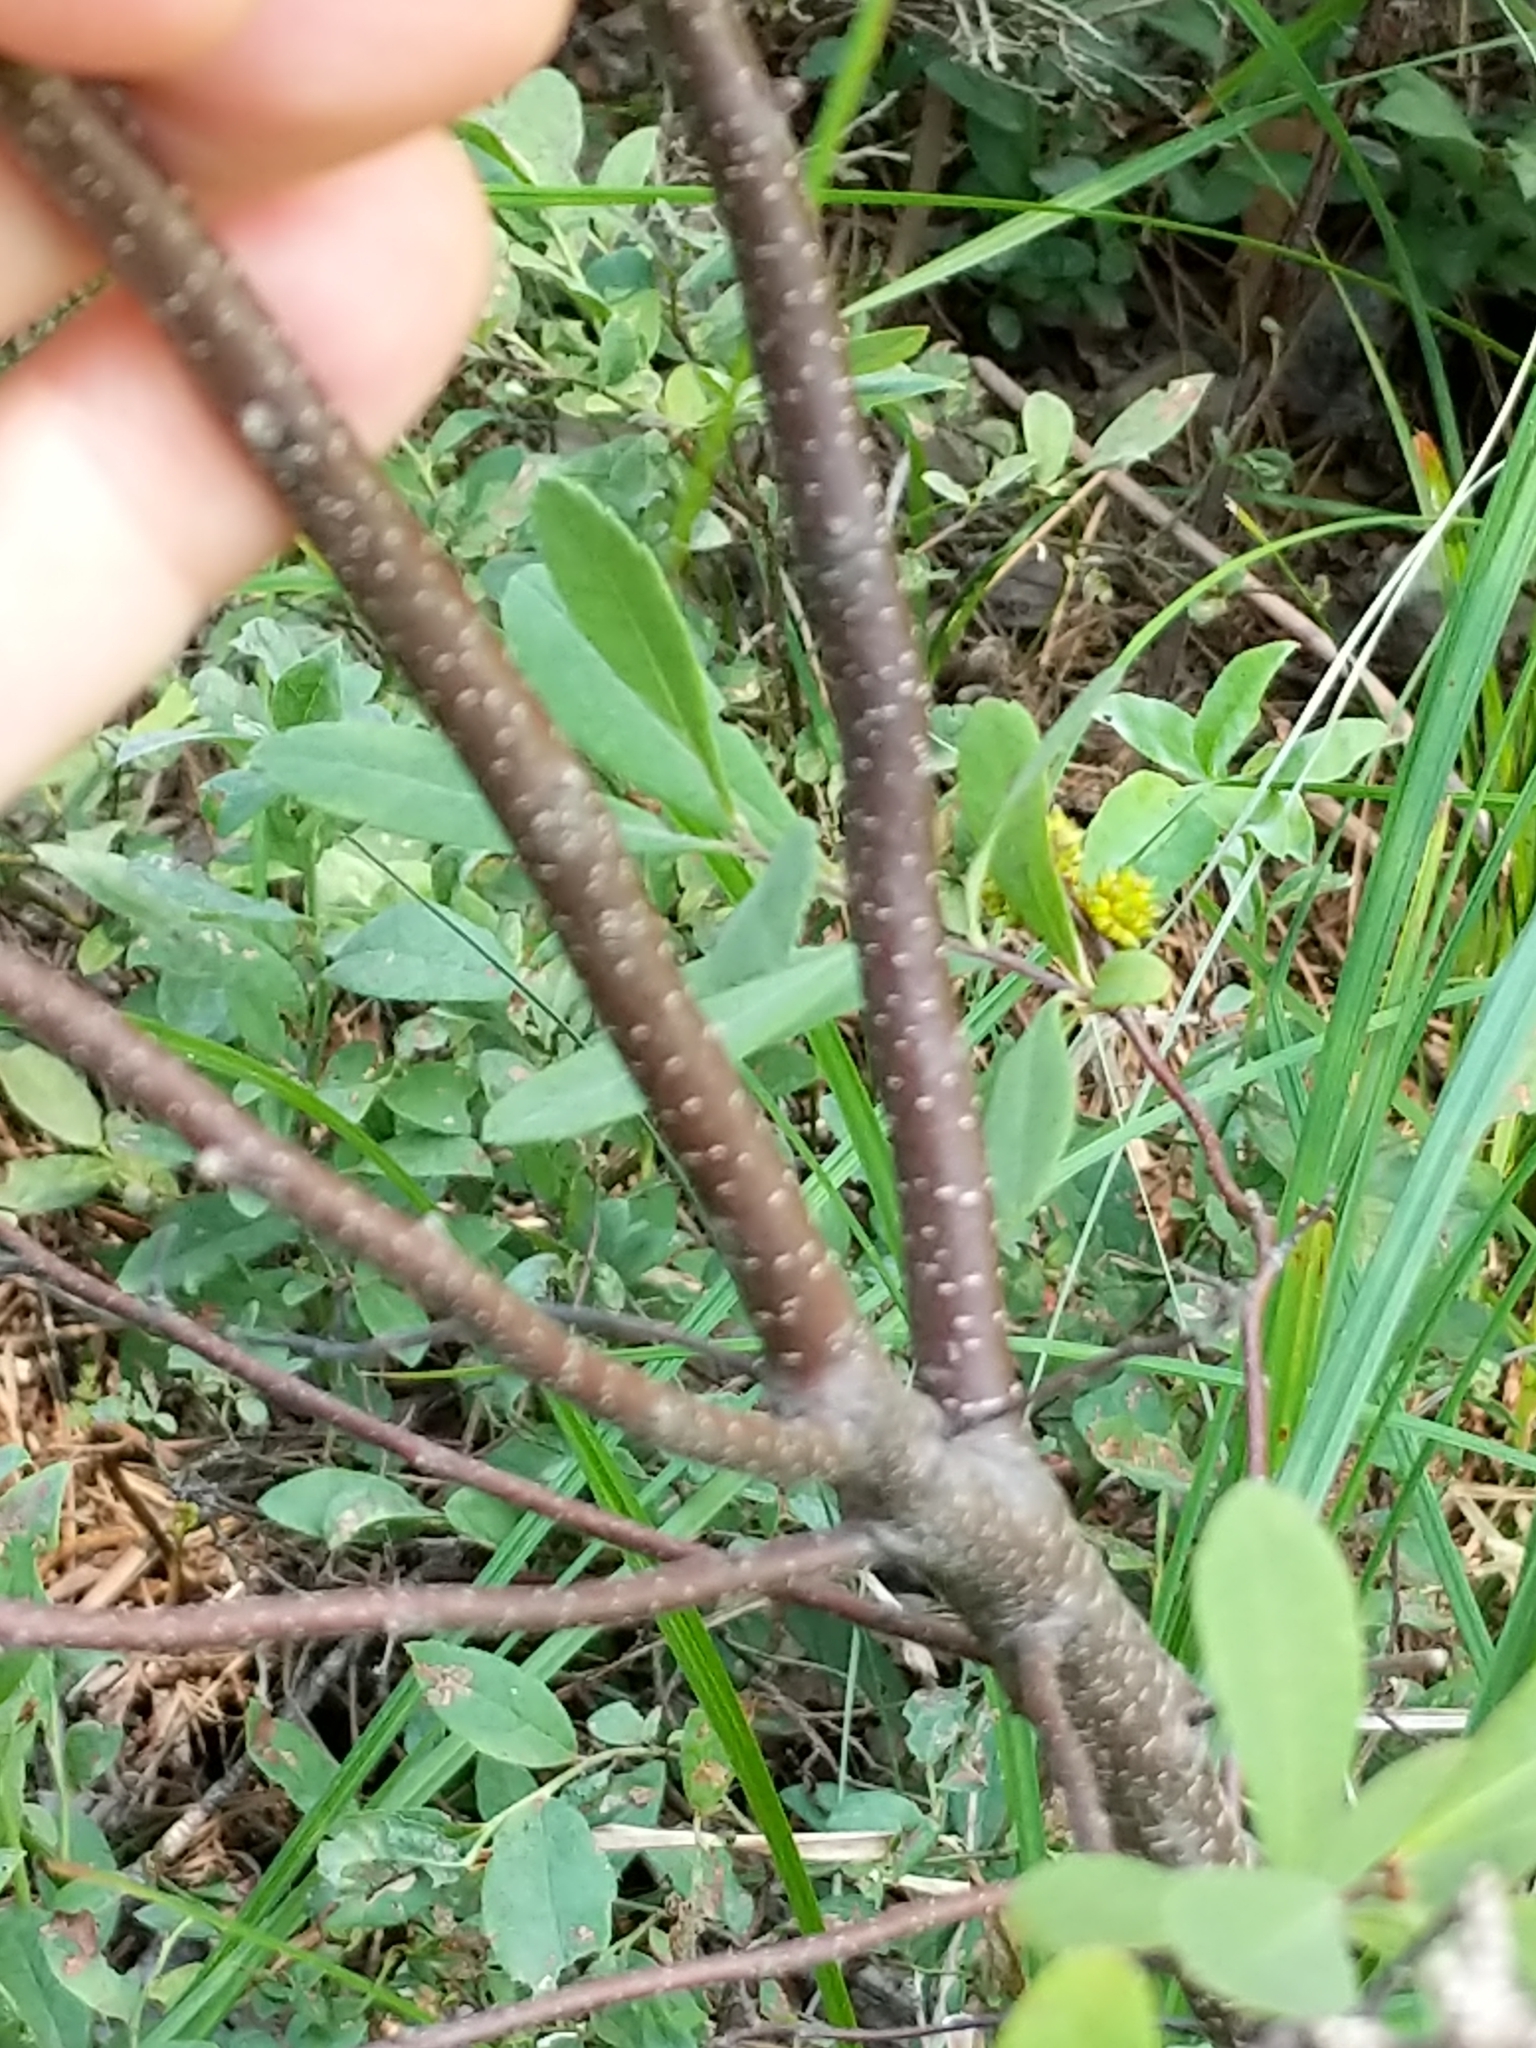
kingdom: Plantae
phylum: Tracheophyta
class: Magnoliopsida
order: Fagales
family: Myricaceae
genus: Myrica
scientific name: Myrica gale
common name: Sweet gale
